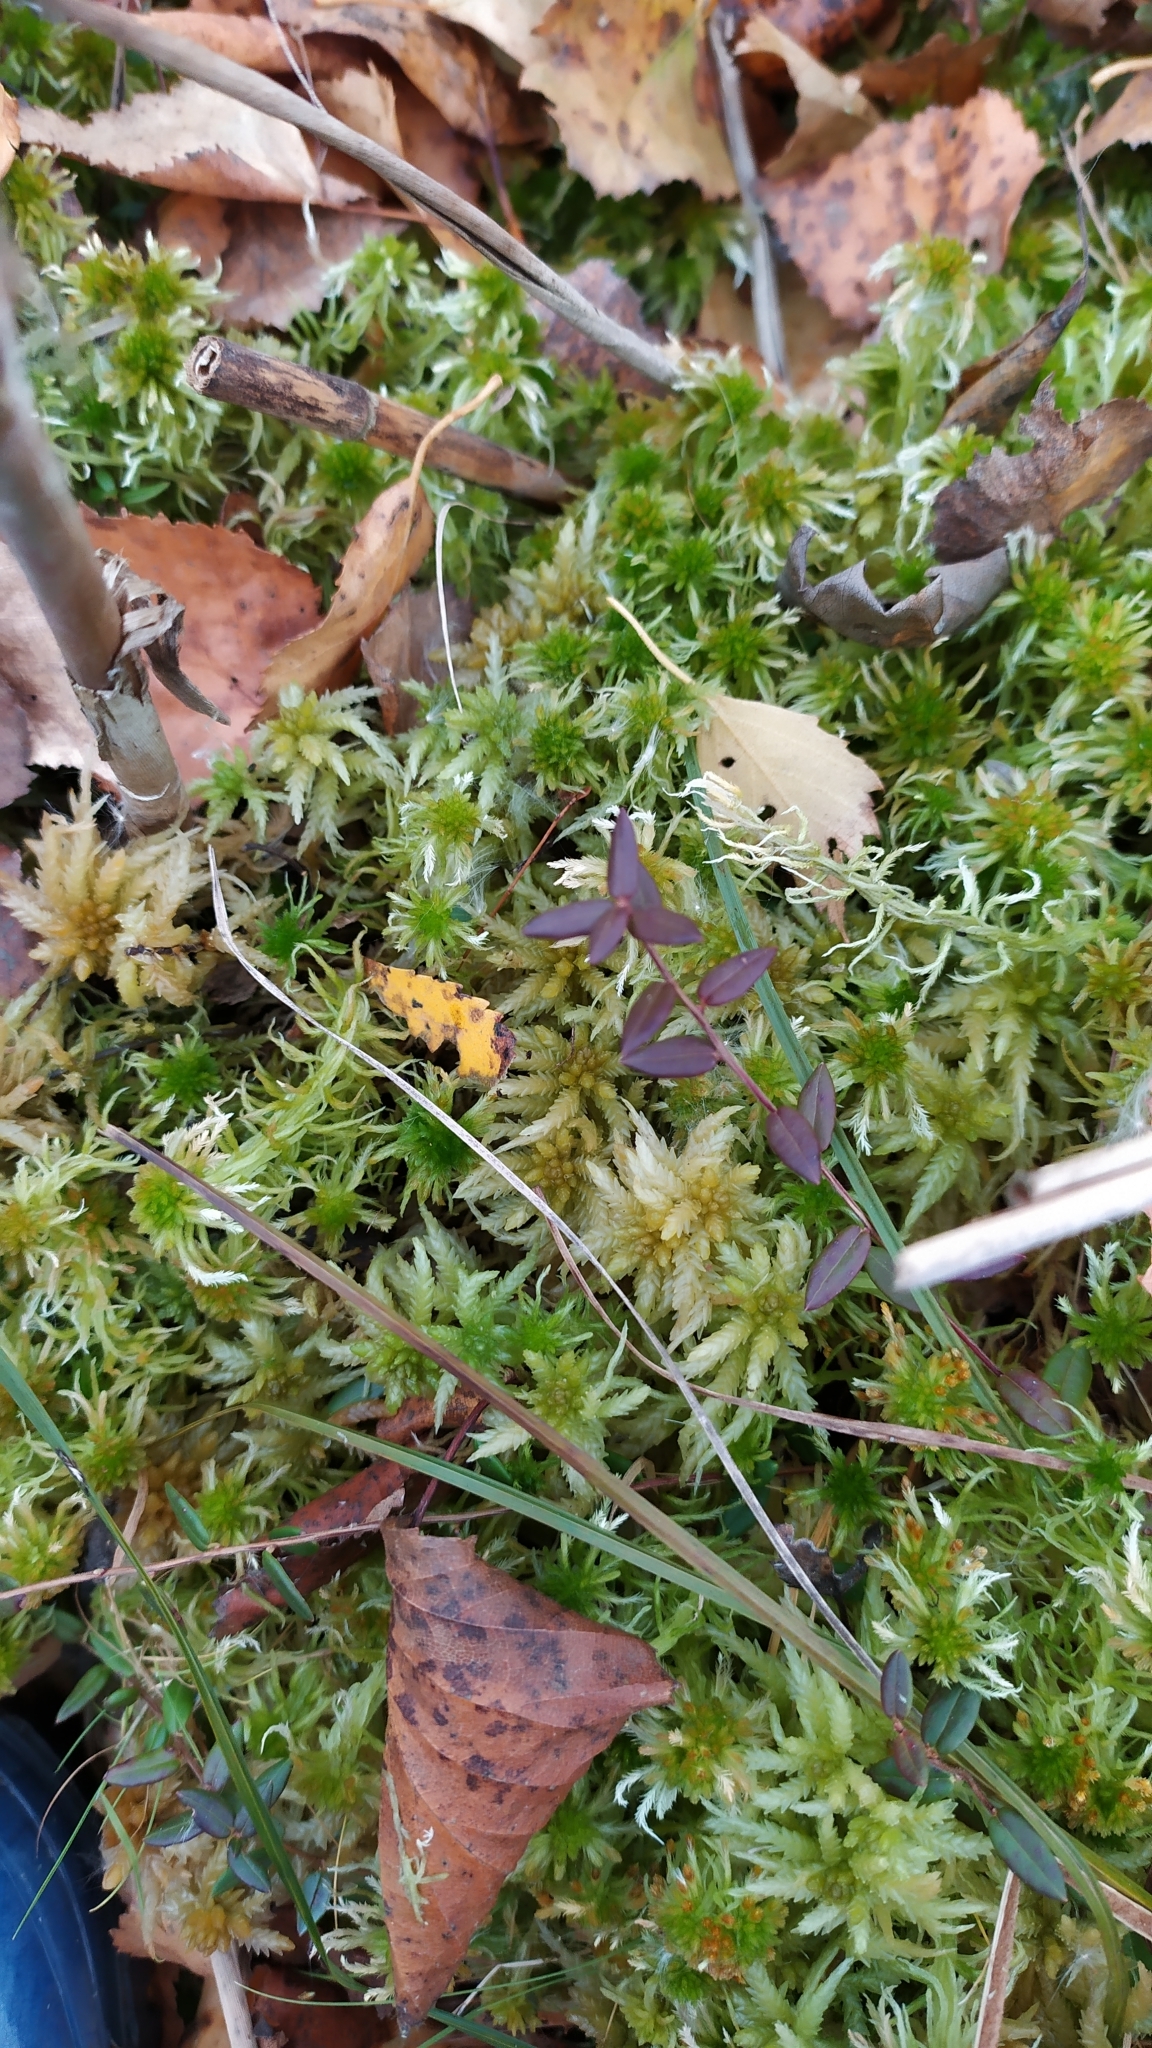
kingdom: Plantae
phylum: Bryophyta
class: Sphagnopsida
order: Sphagnales
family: Sphagnaceae
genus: Sphagnum
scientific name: Sphagnum palustre
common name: Blunt-leaved bog-moss
